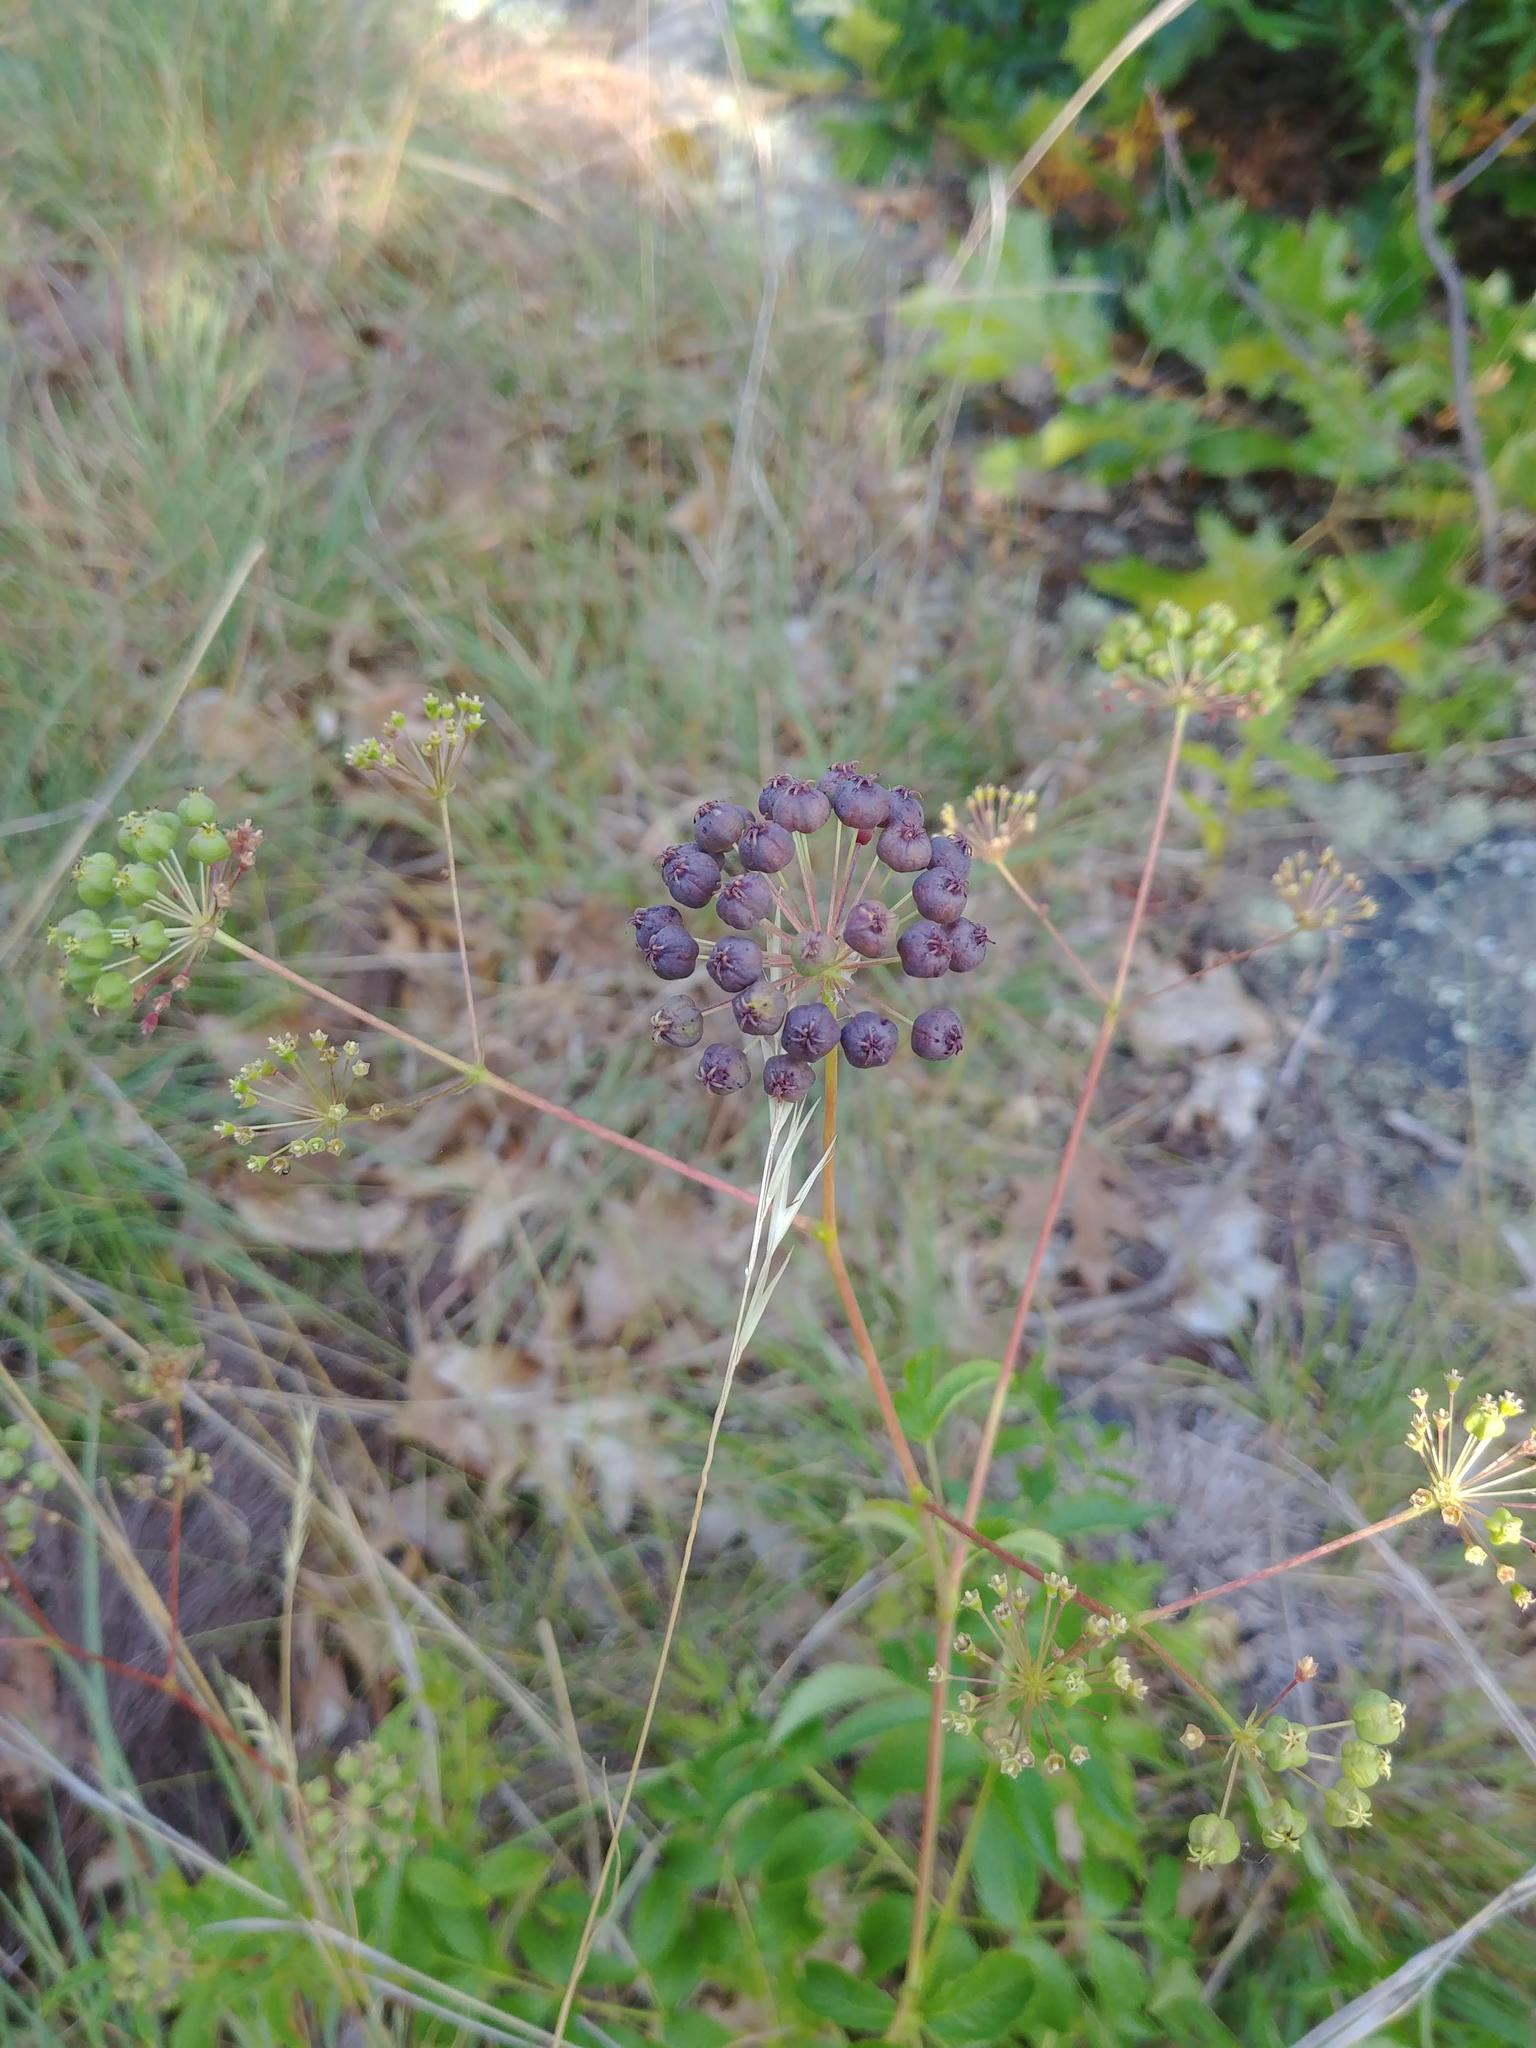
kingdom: Plantae
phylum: Tracheophyta
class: Magnoliopsida
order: Apiales
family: Araliaceae
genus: Aralia
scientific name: Aralia hispida
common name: Bristly sarsaparilla
